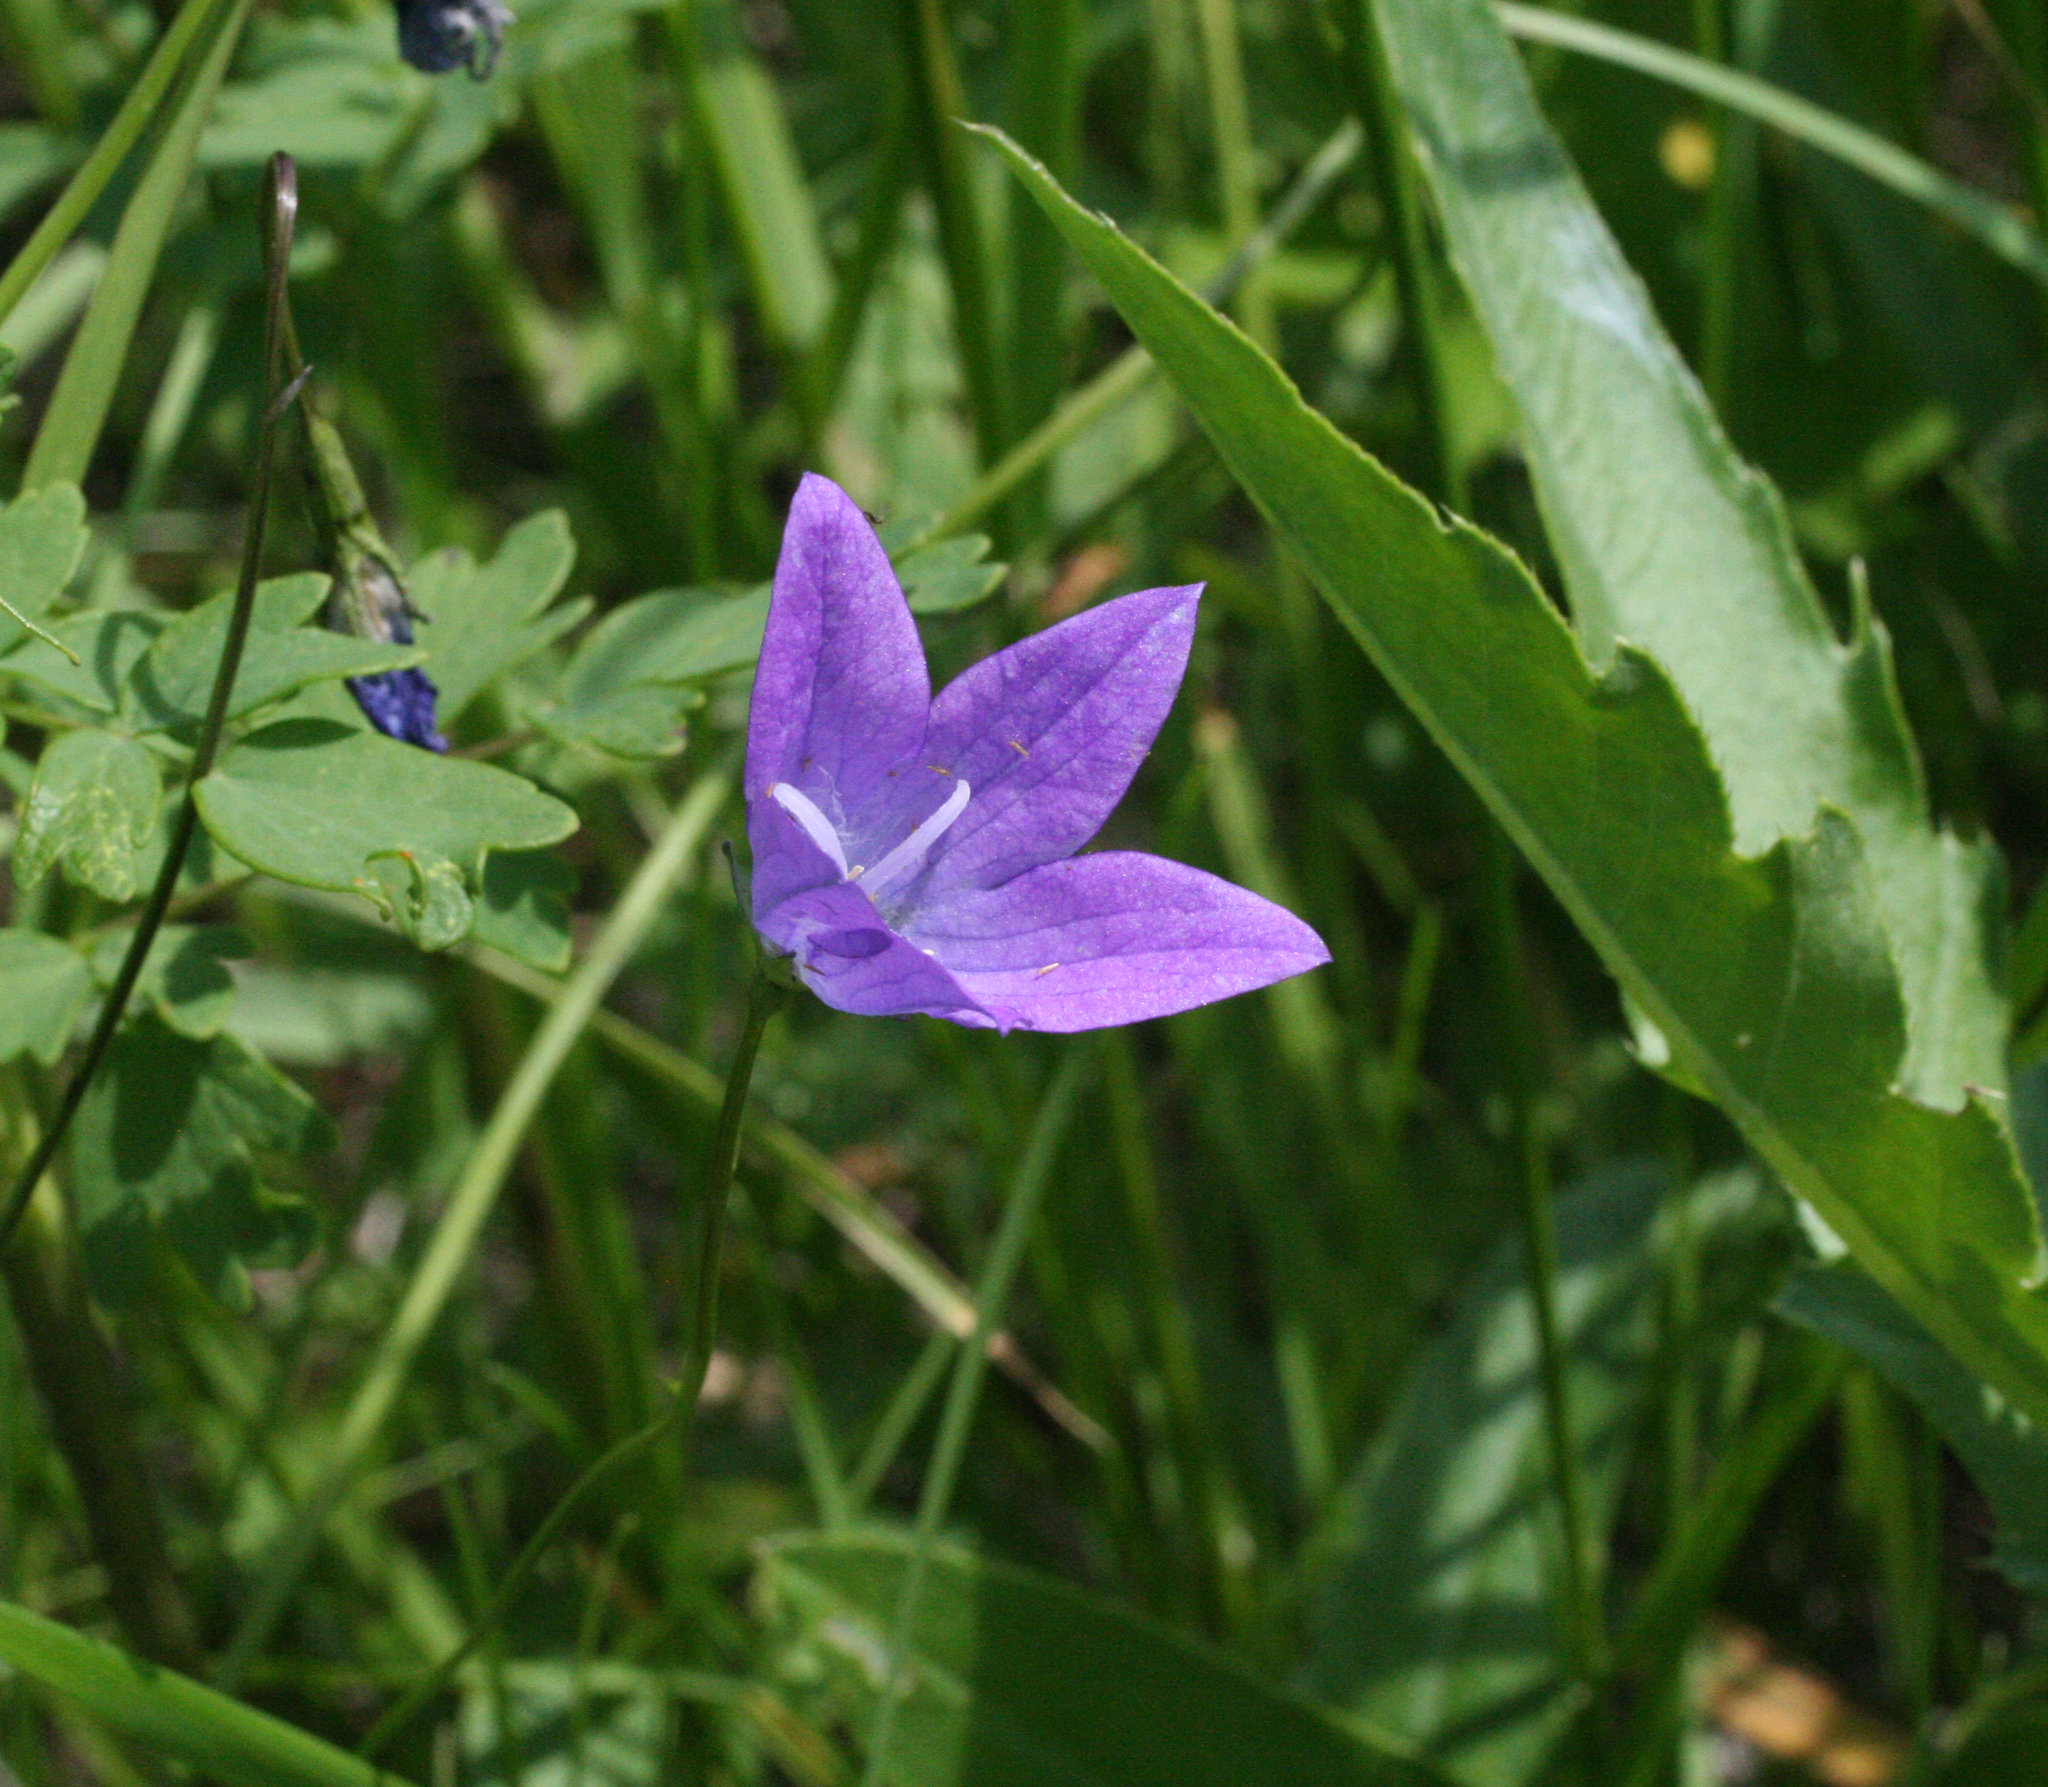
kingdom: Plantae
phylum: Tracheophyta
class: Magnoliopsida
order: Asterales
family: Campanulaceae
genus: Campanula
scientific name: Campanula stevenii
